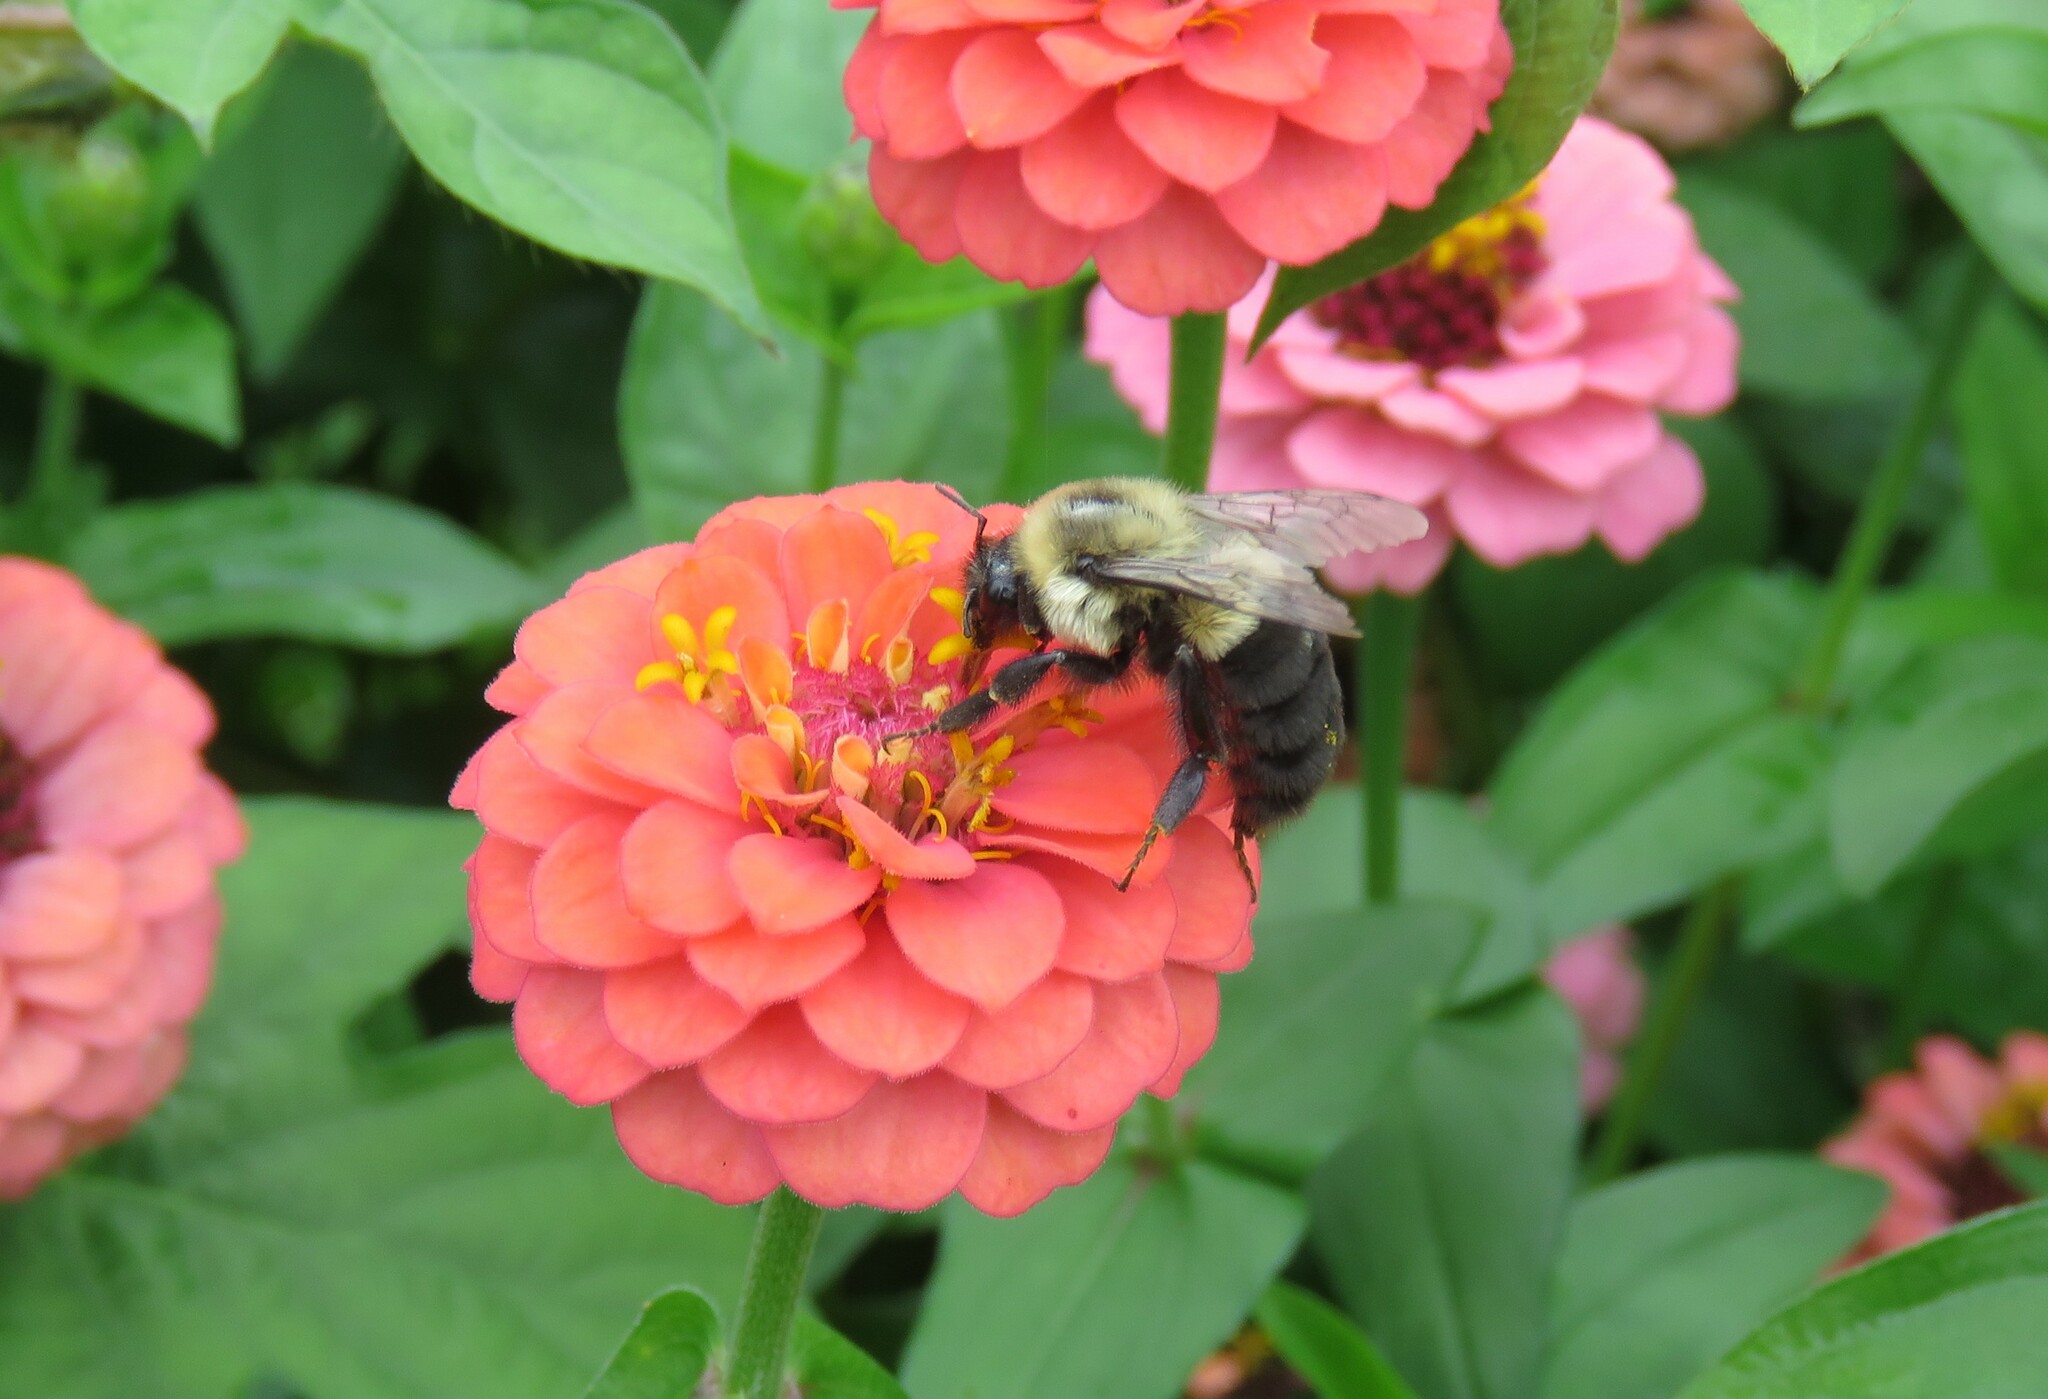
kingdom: Animalia
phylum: Arthropoda
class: Insecta
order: Hymenoptera
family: Apidae
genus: Bombus
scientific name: Bombus impatiens
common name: Common eastern bumble bee
